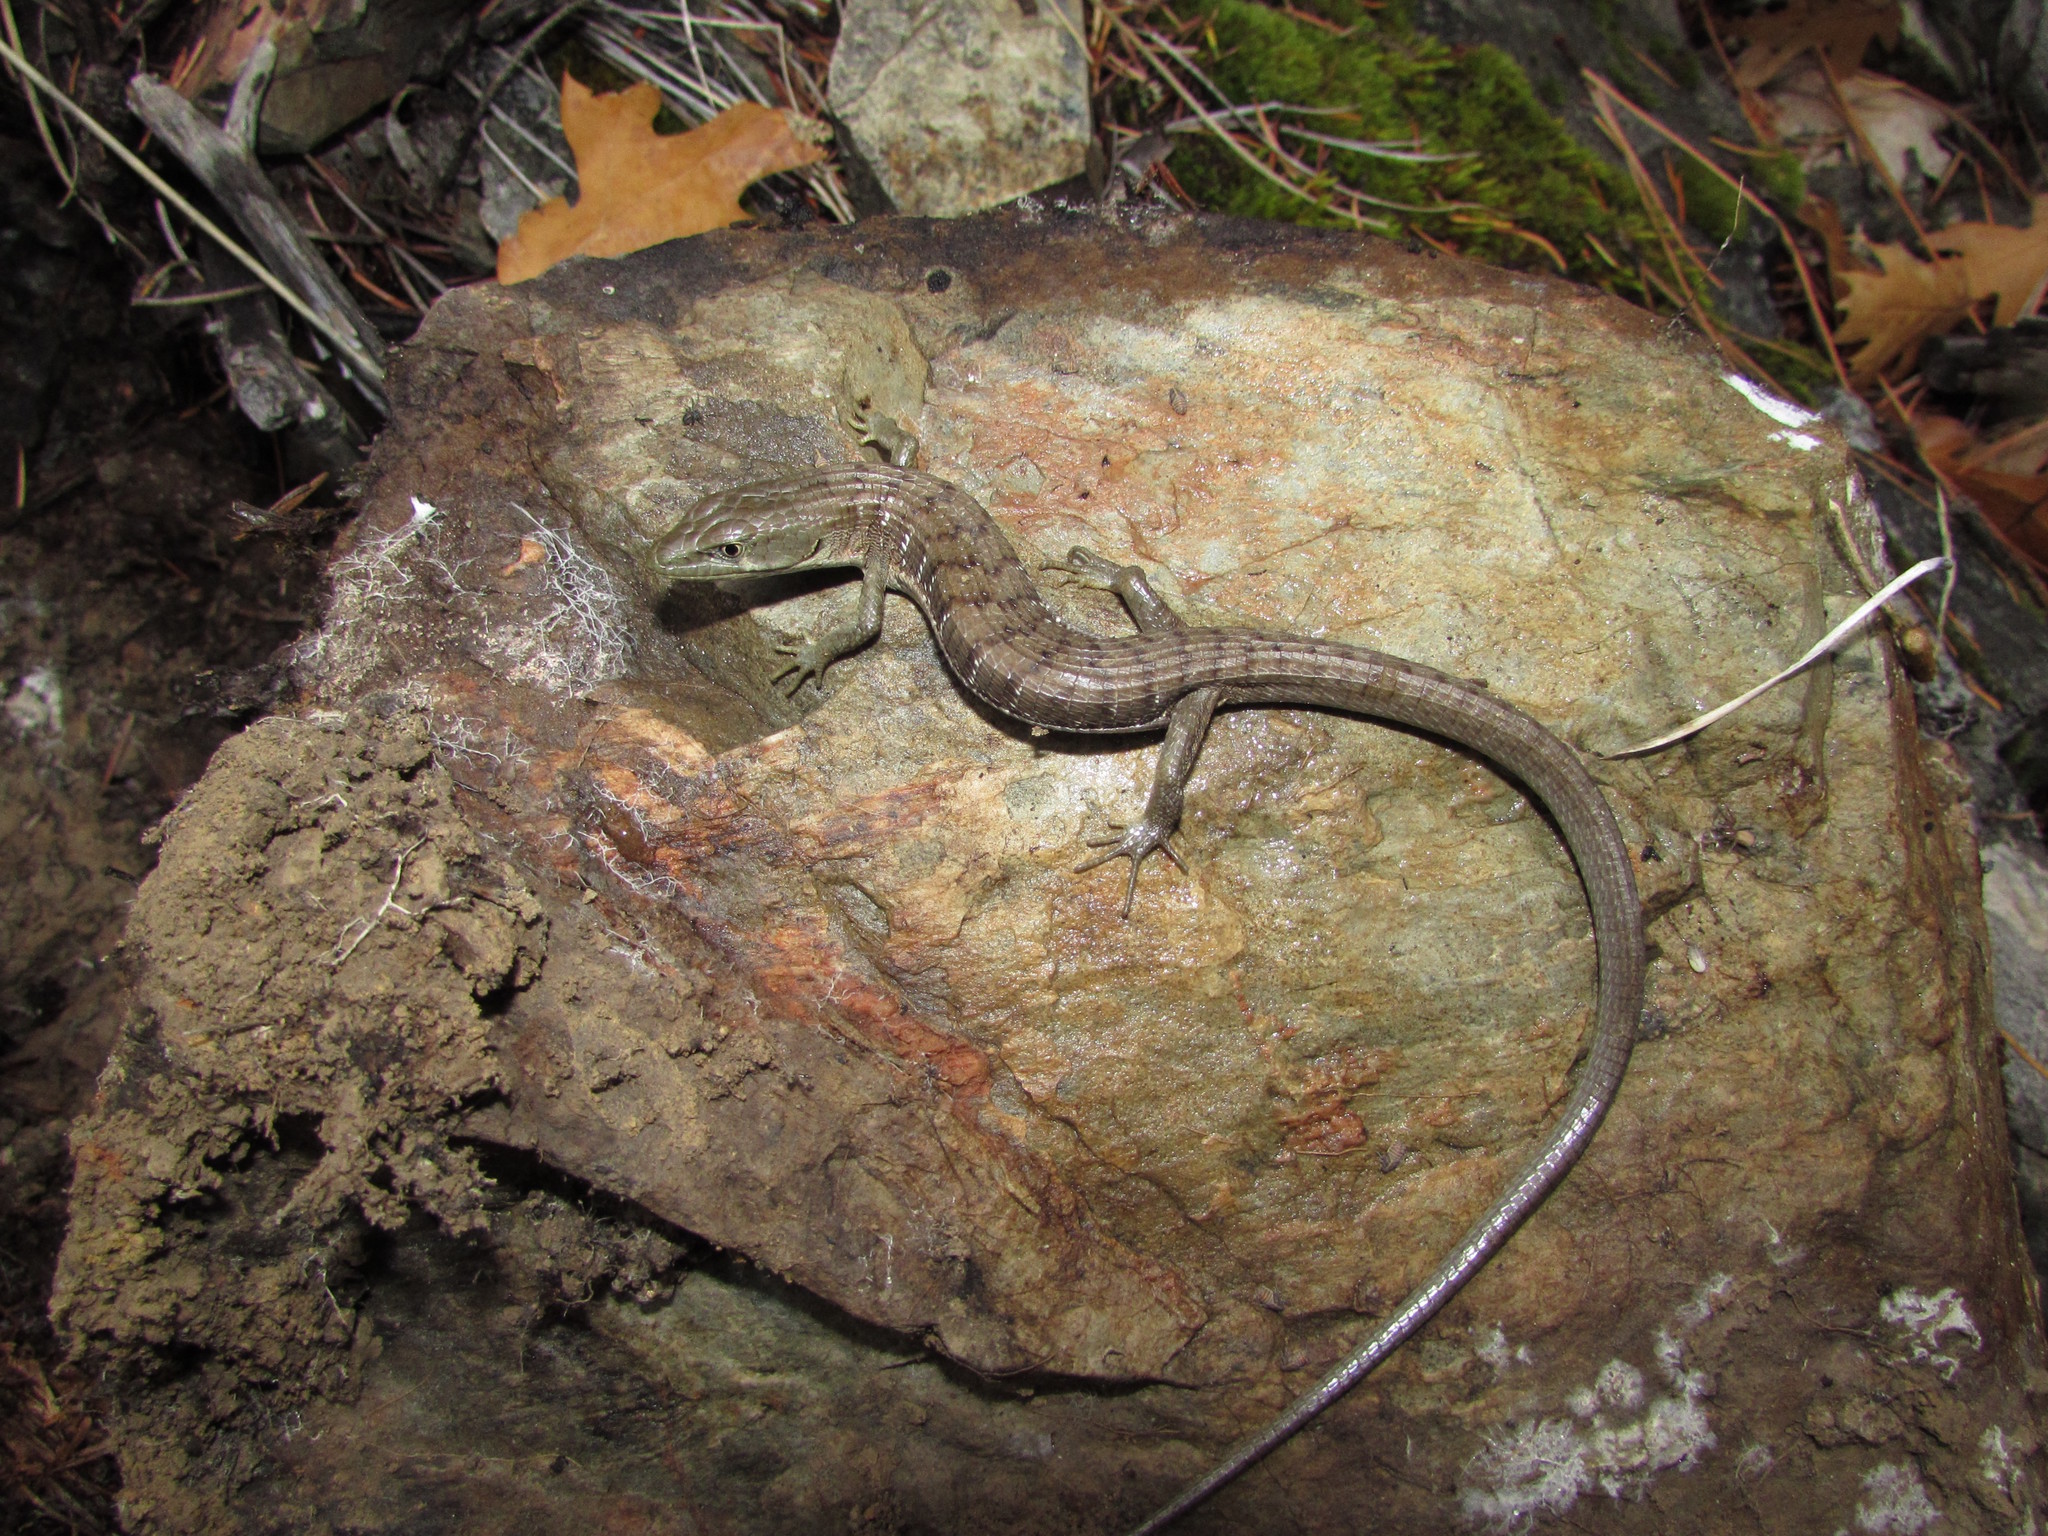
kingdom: Animalia
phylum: Chordata
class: Squamata
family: Anguidae
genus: Elgaria
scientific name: Elgaria multicarinata
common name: Southern alligator lizard
